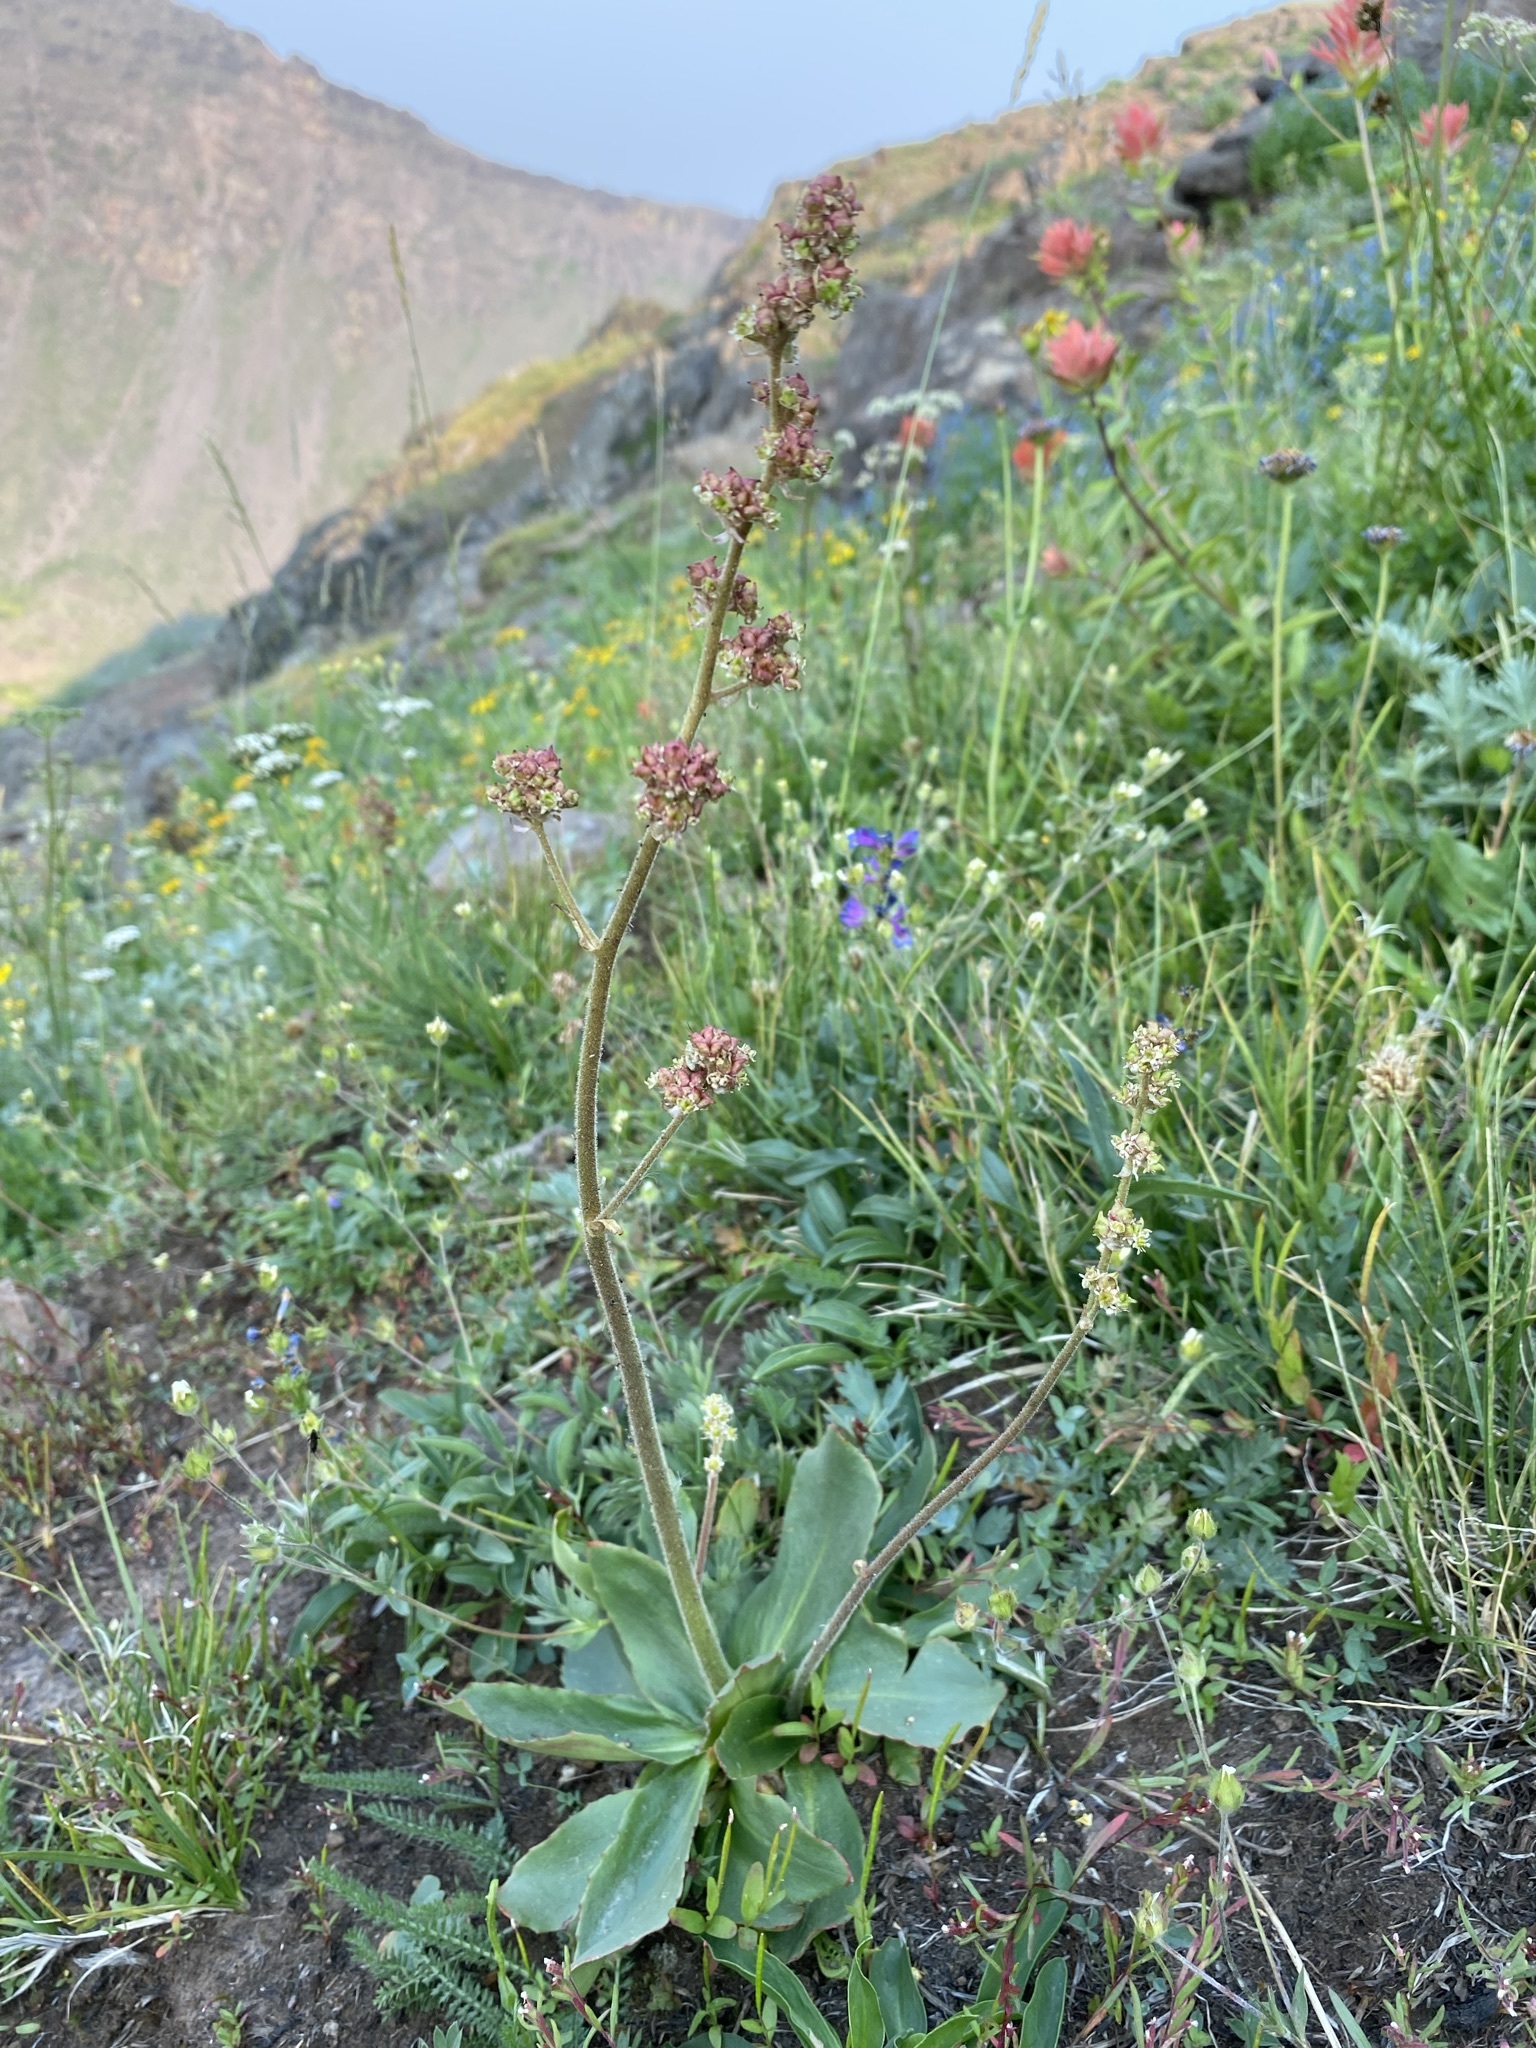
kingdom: Plantae
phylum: Tracheophyta
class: Magnoliopsida
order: Saxifragales
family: Saxifragaceae
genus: Micranthes
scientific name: Micranthes oregana
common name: Bog saxifrage
